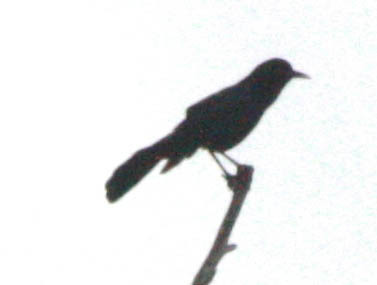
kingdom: Animalia
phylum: Chordata
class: Aves
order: Passeriformes
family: Icteridae
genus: Quiscalus
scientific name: Quiscalus major
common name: Boat-tailed grackle
